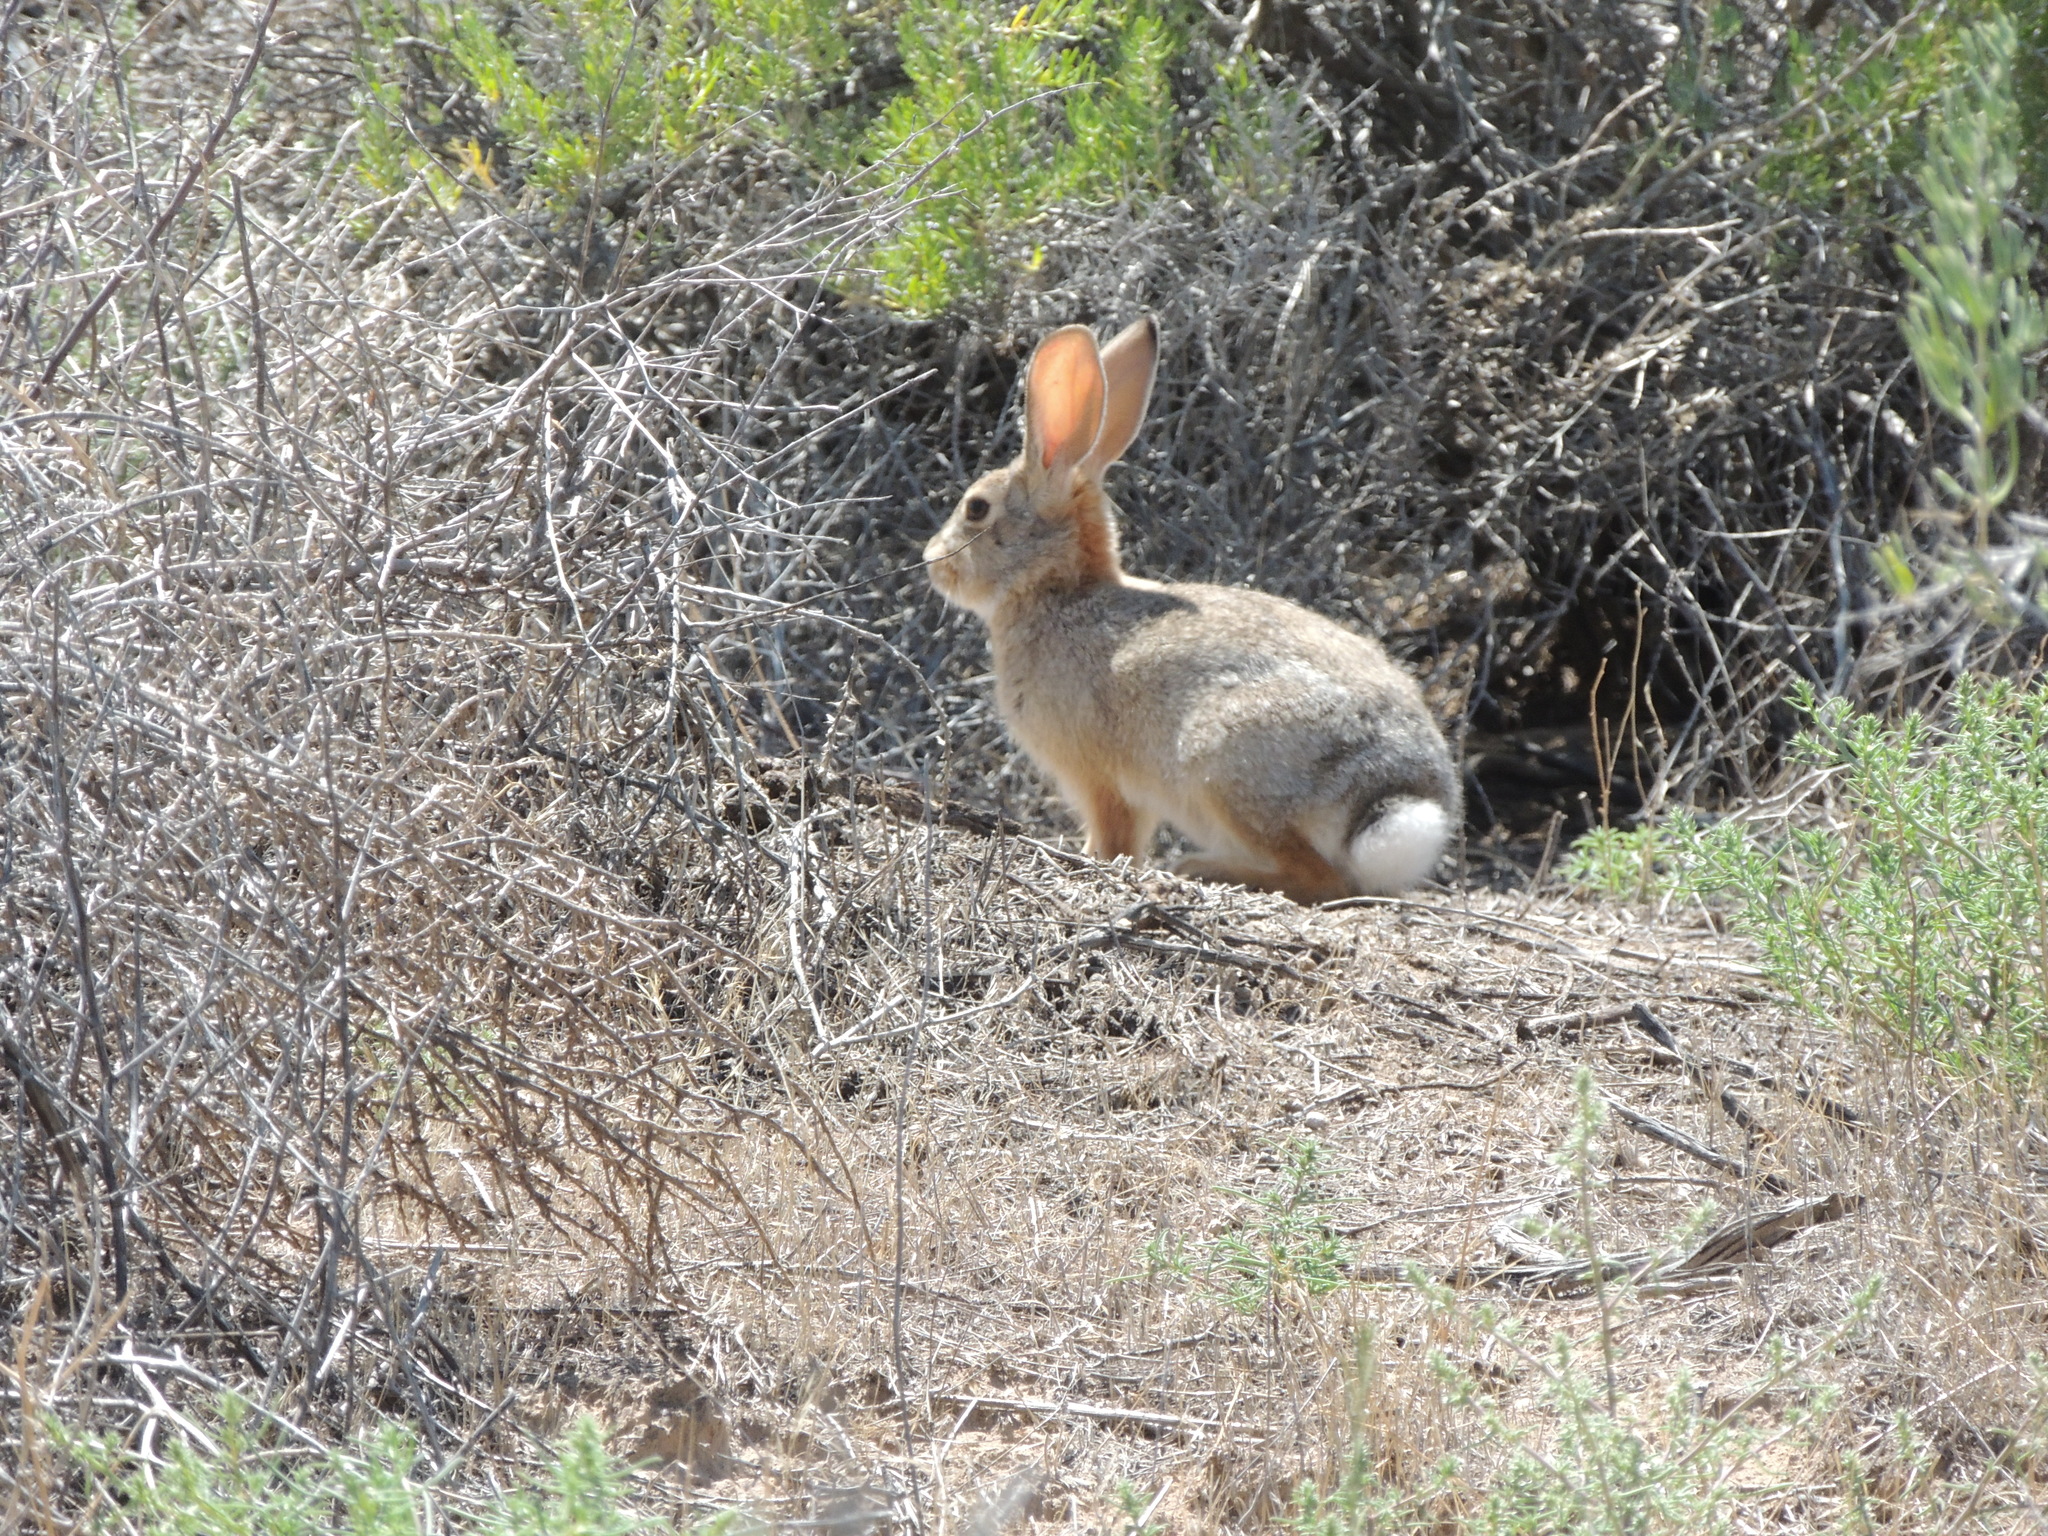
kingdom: Animalia
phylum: Chordata
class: Mammalia
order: Lagomorpha
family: Leporidae
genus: Sylvilagus
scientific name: Sylvilagus audubonii
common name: Desert cottontail
